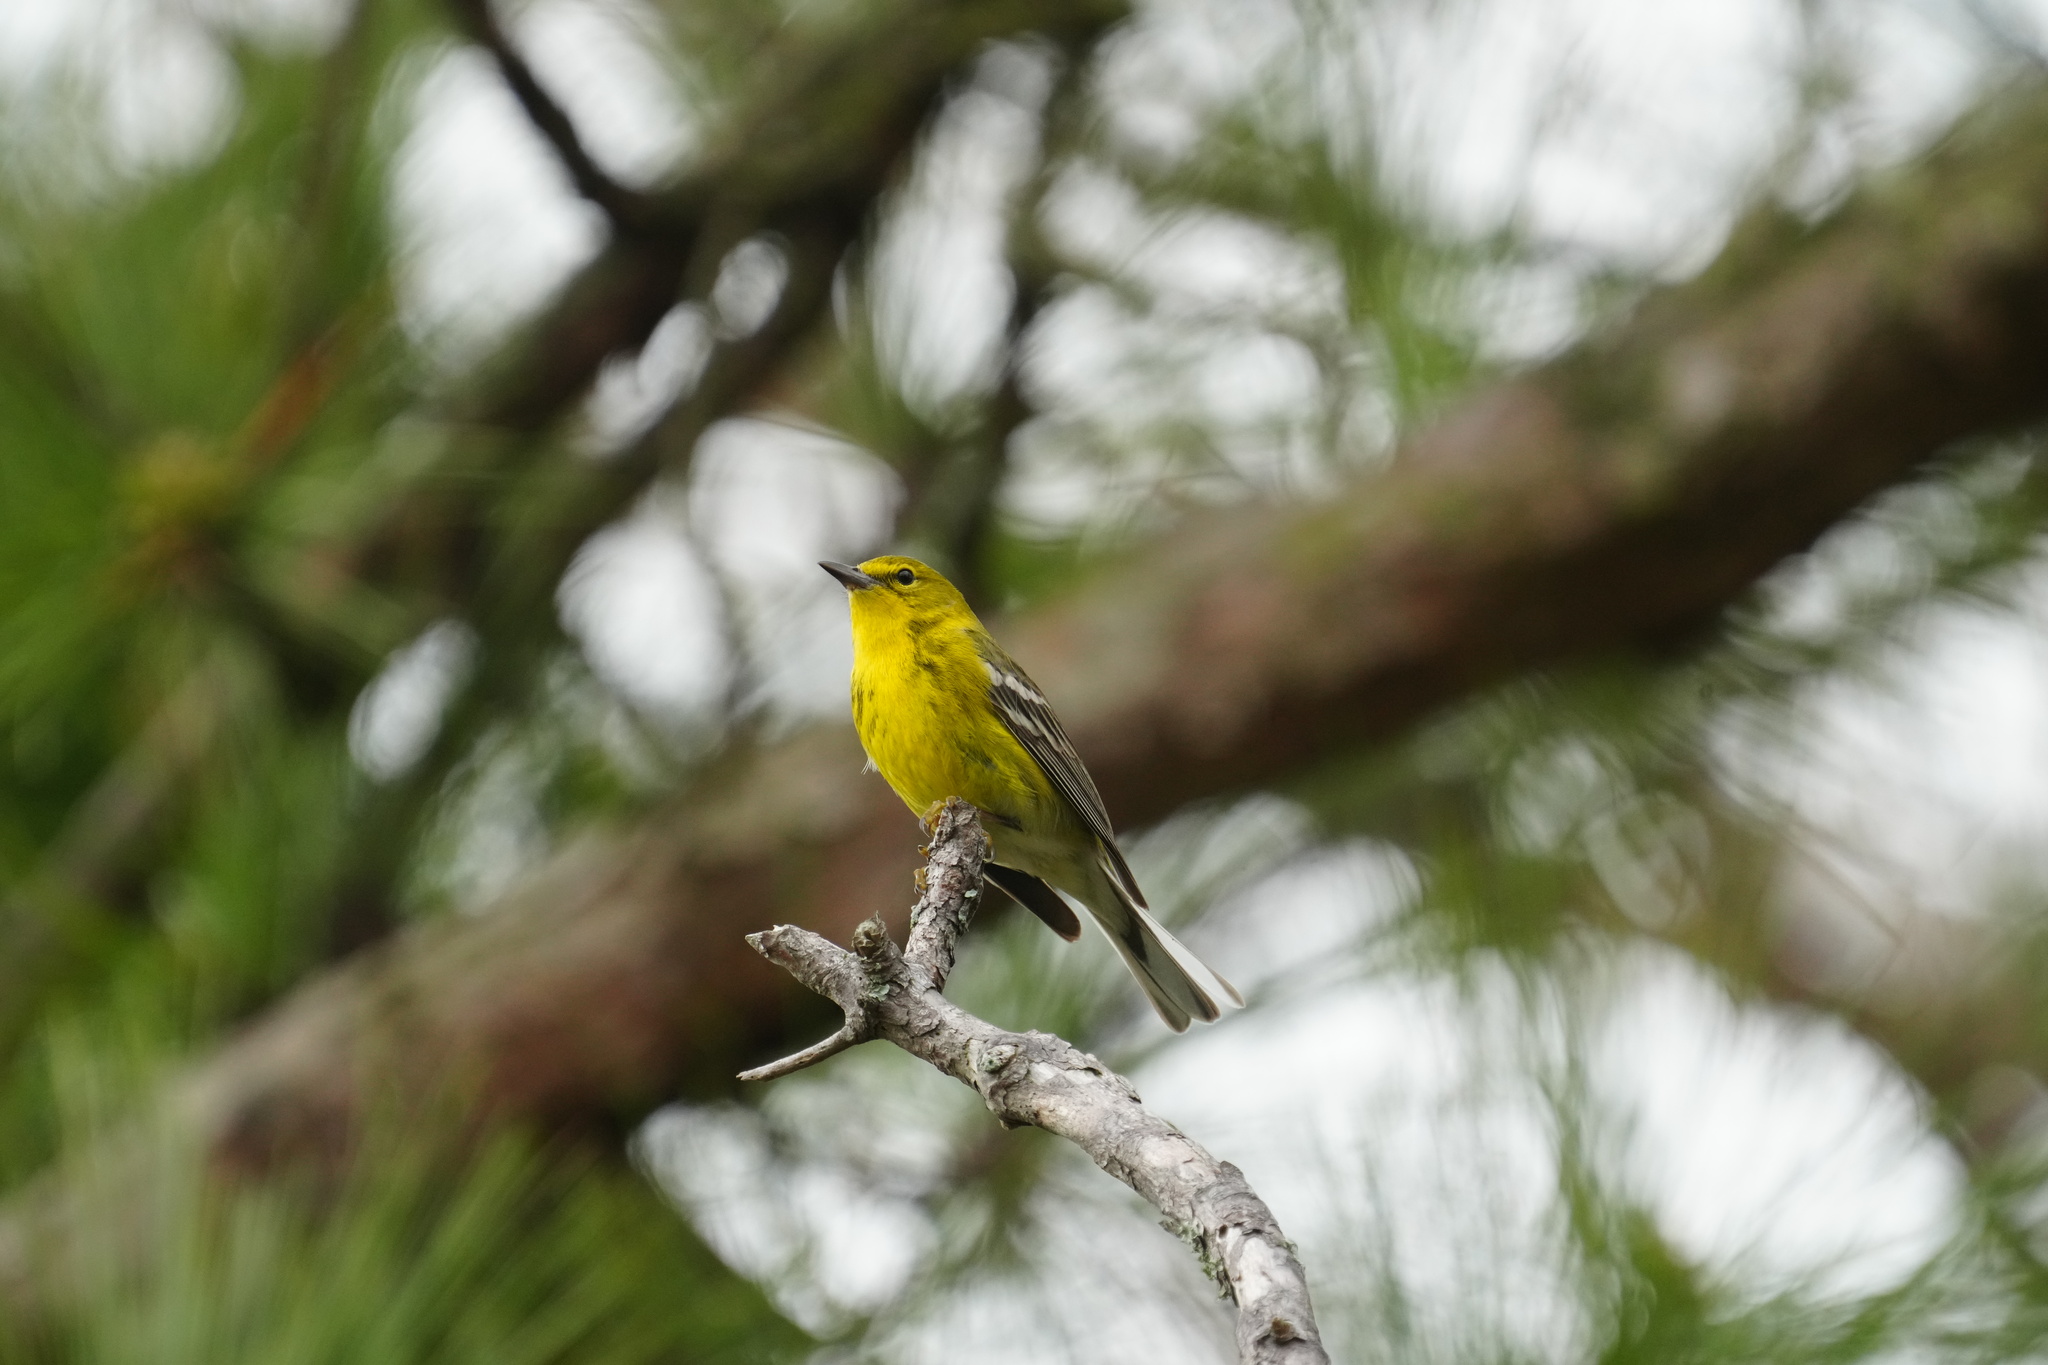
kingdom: Animalia
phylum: Chordata
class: Aves
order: Passeriformes
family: Parulidae
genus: Setophaga
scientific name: Setophaga pinus
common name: Pine warbler
